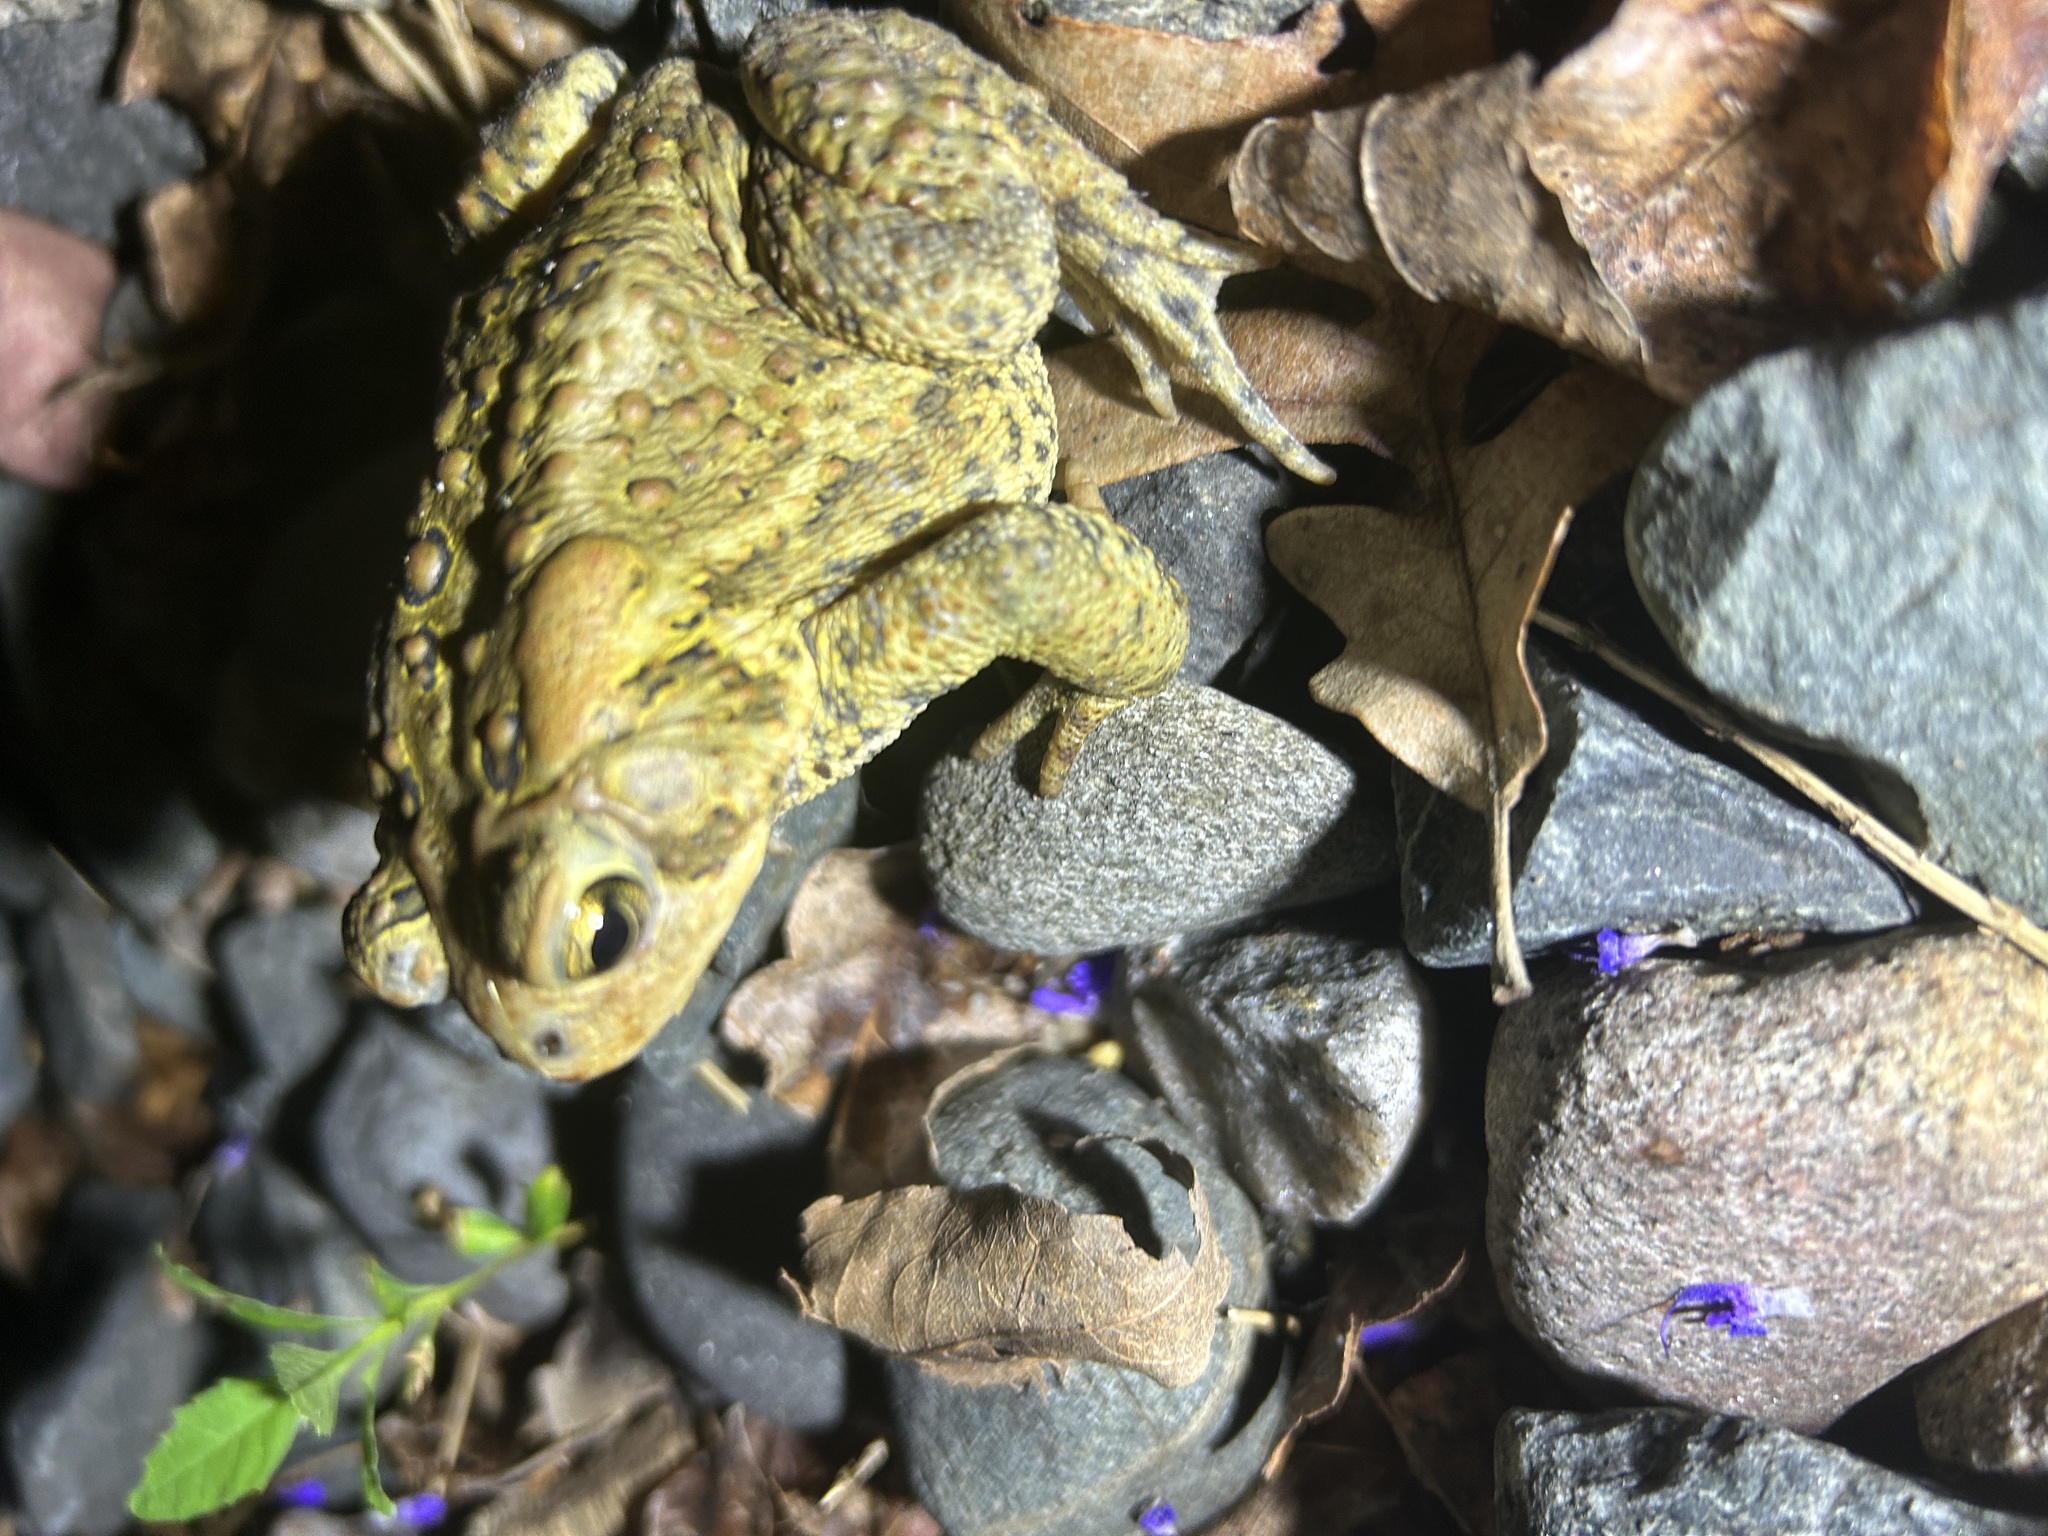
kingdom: Animalia
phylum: Chordata
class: Amphibia
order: Anura
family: Bufonidae
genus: Anaxyrus
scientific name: Anaxyrus americanus
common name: American toad
